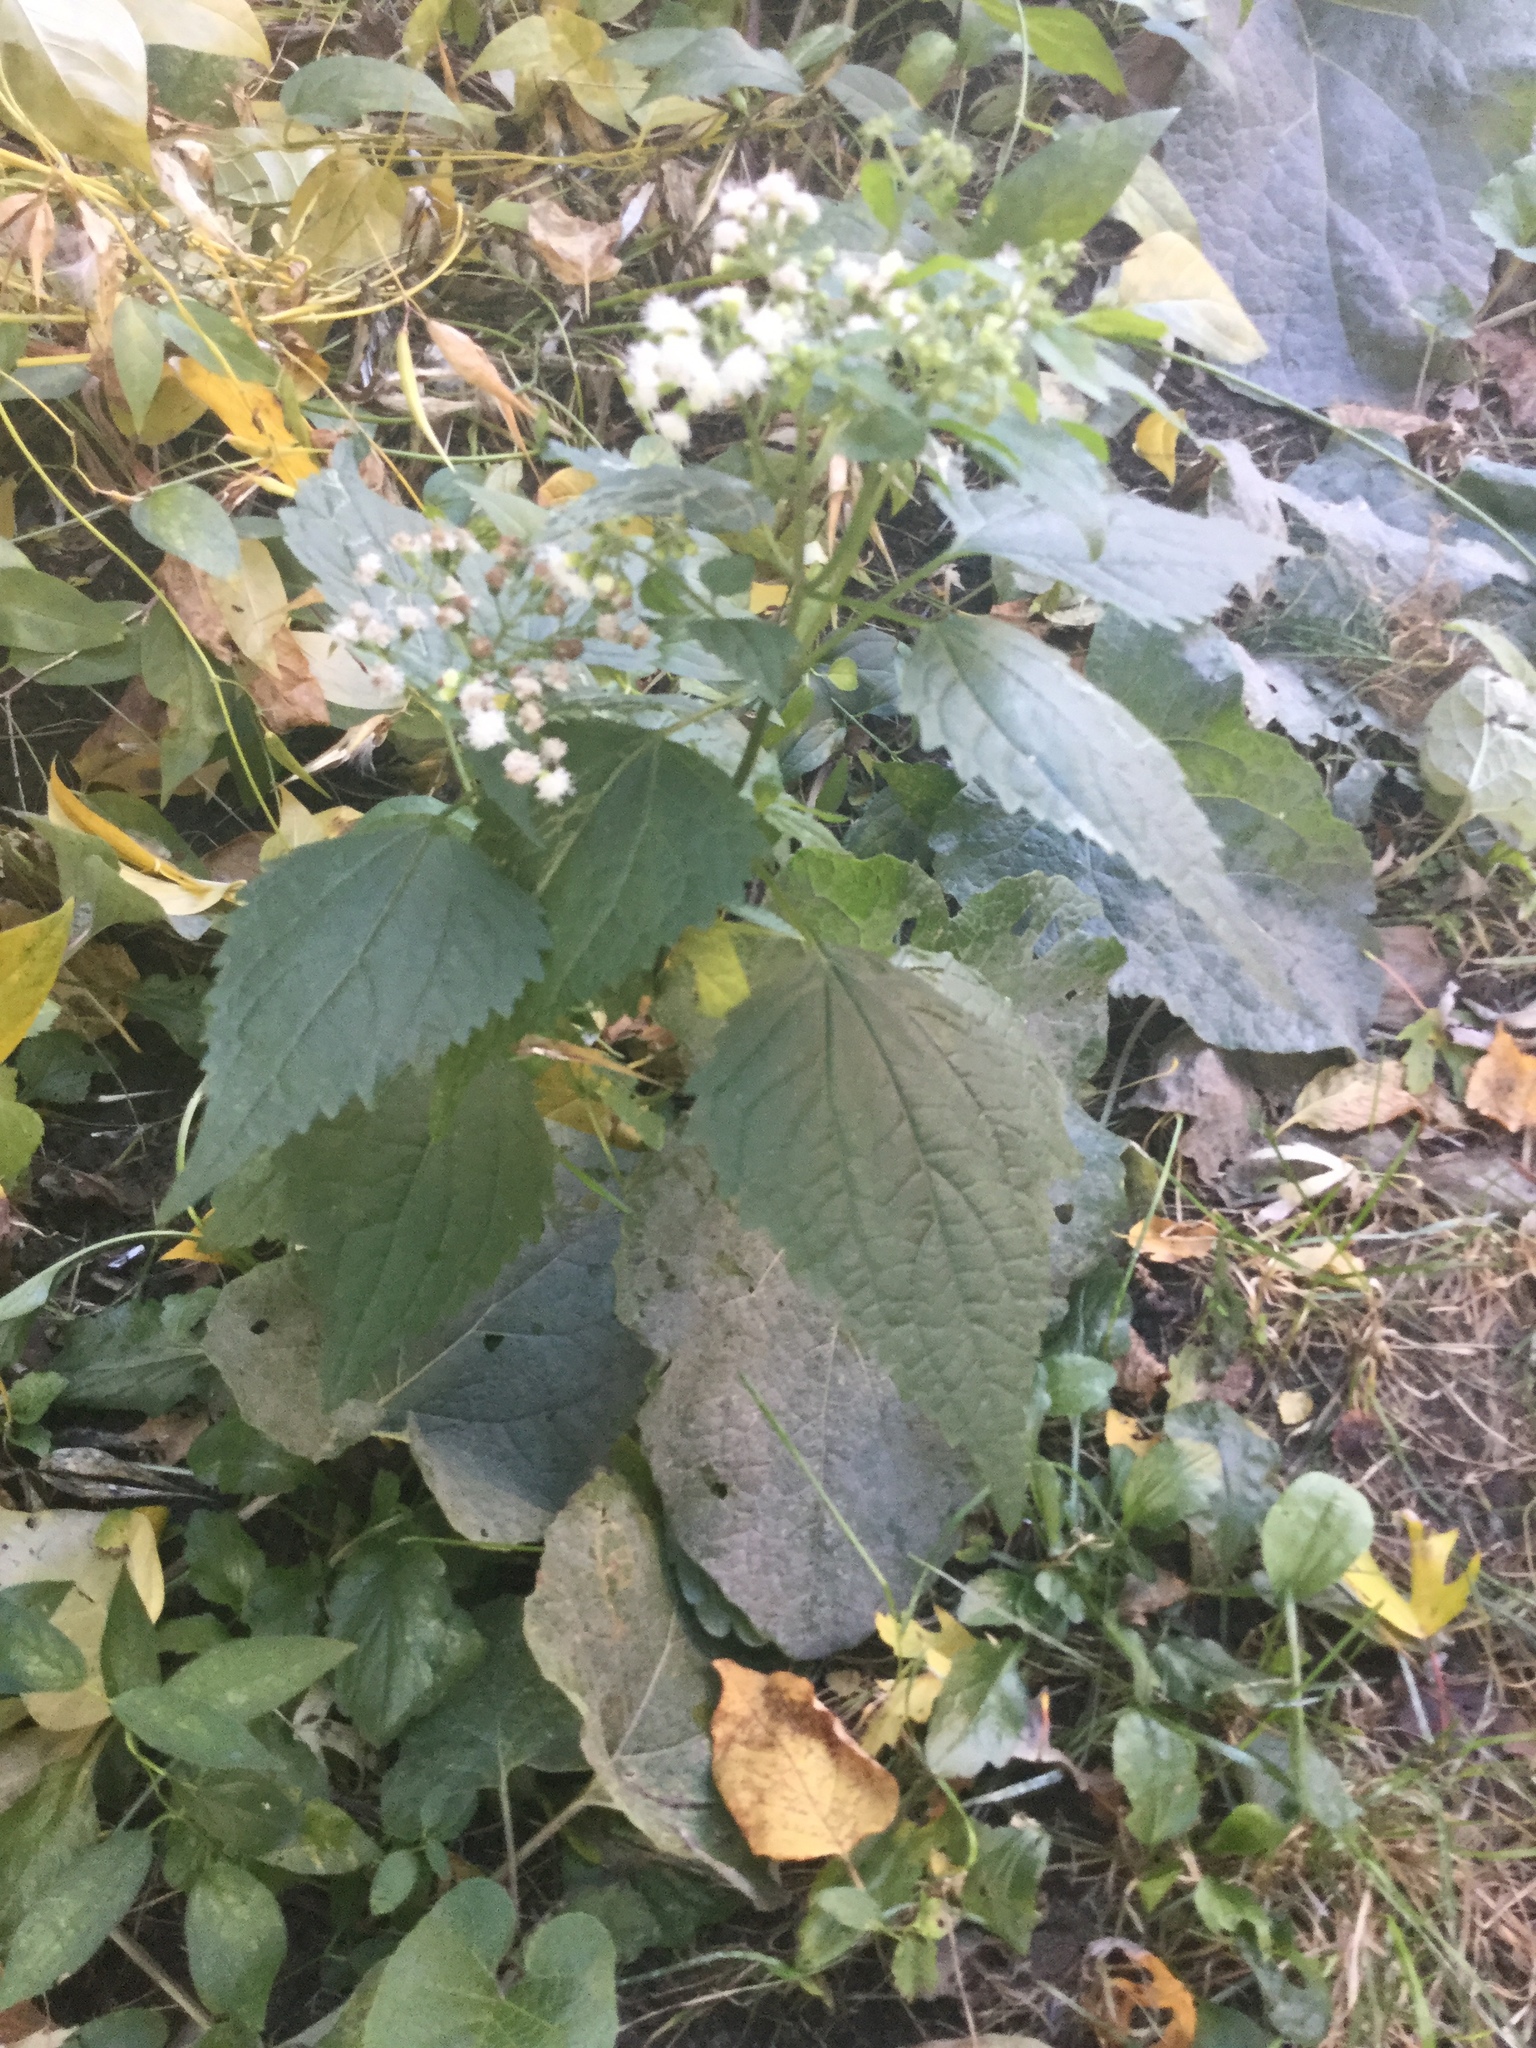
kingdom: Plantae
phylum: Tracheophyta
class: Magnoliopsida
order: Asterales
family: Asteraceae
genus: Ageratina
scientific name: Ageratina altissima
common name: White snakeroot
